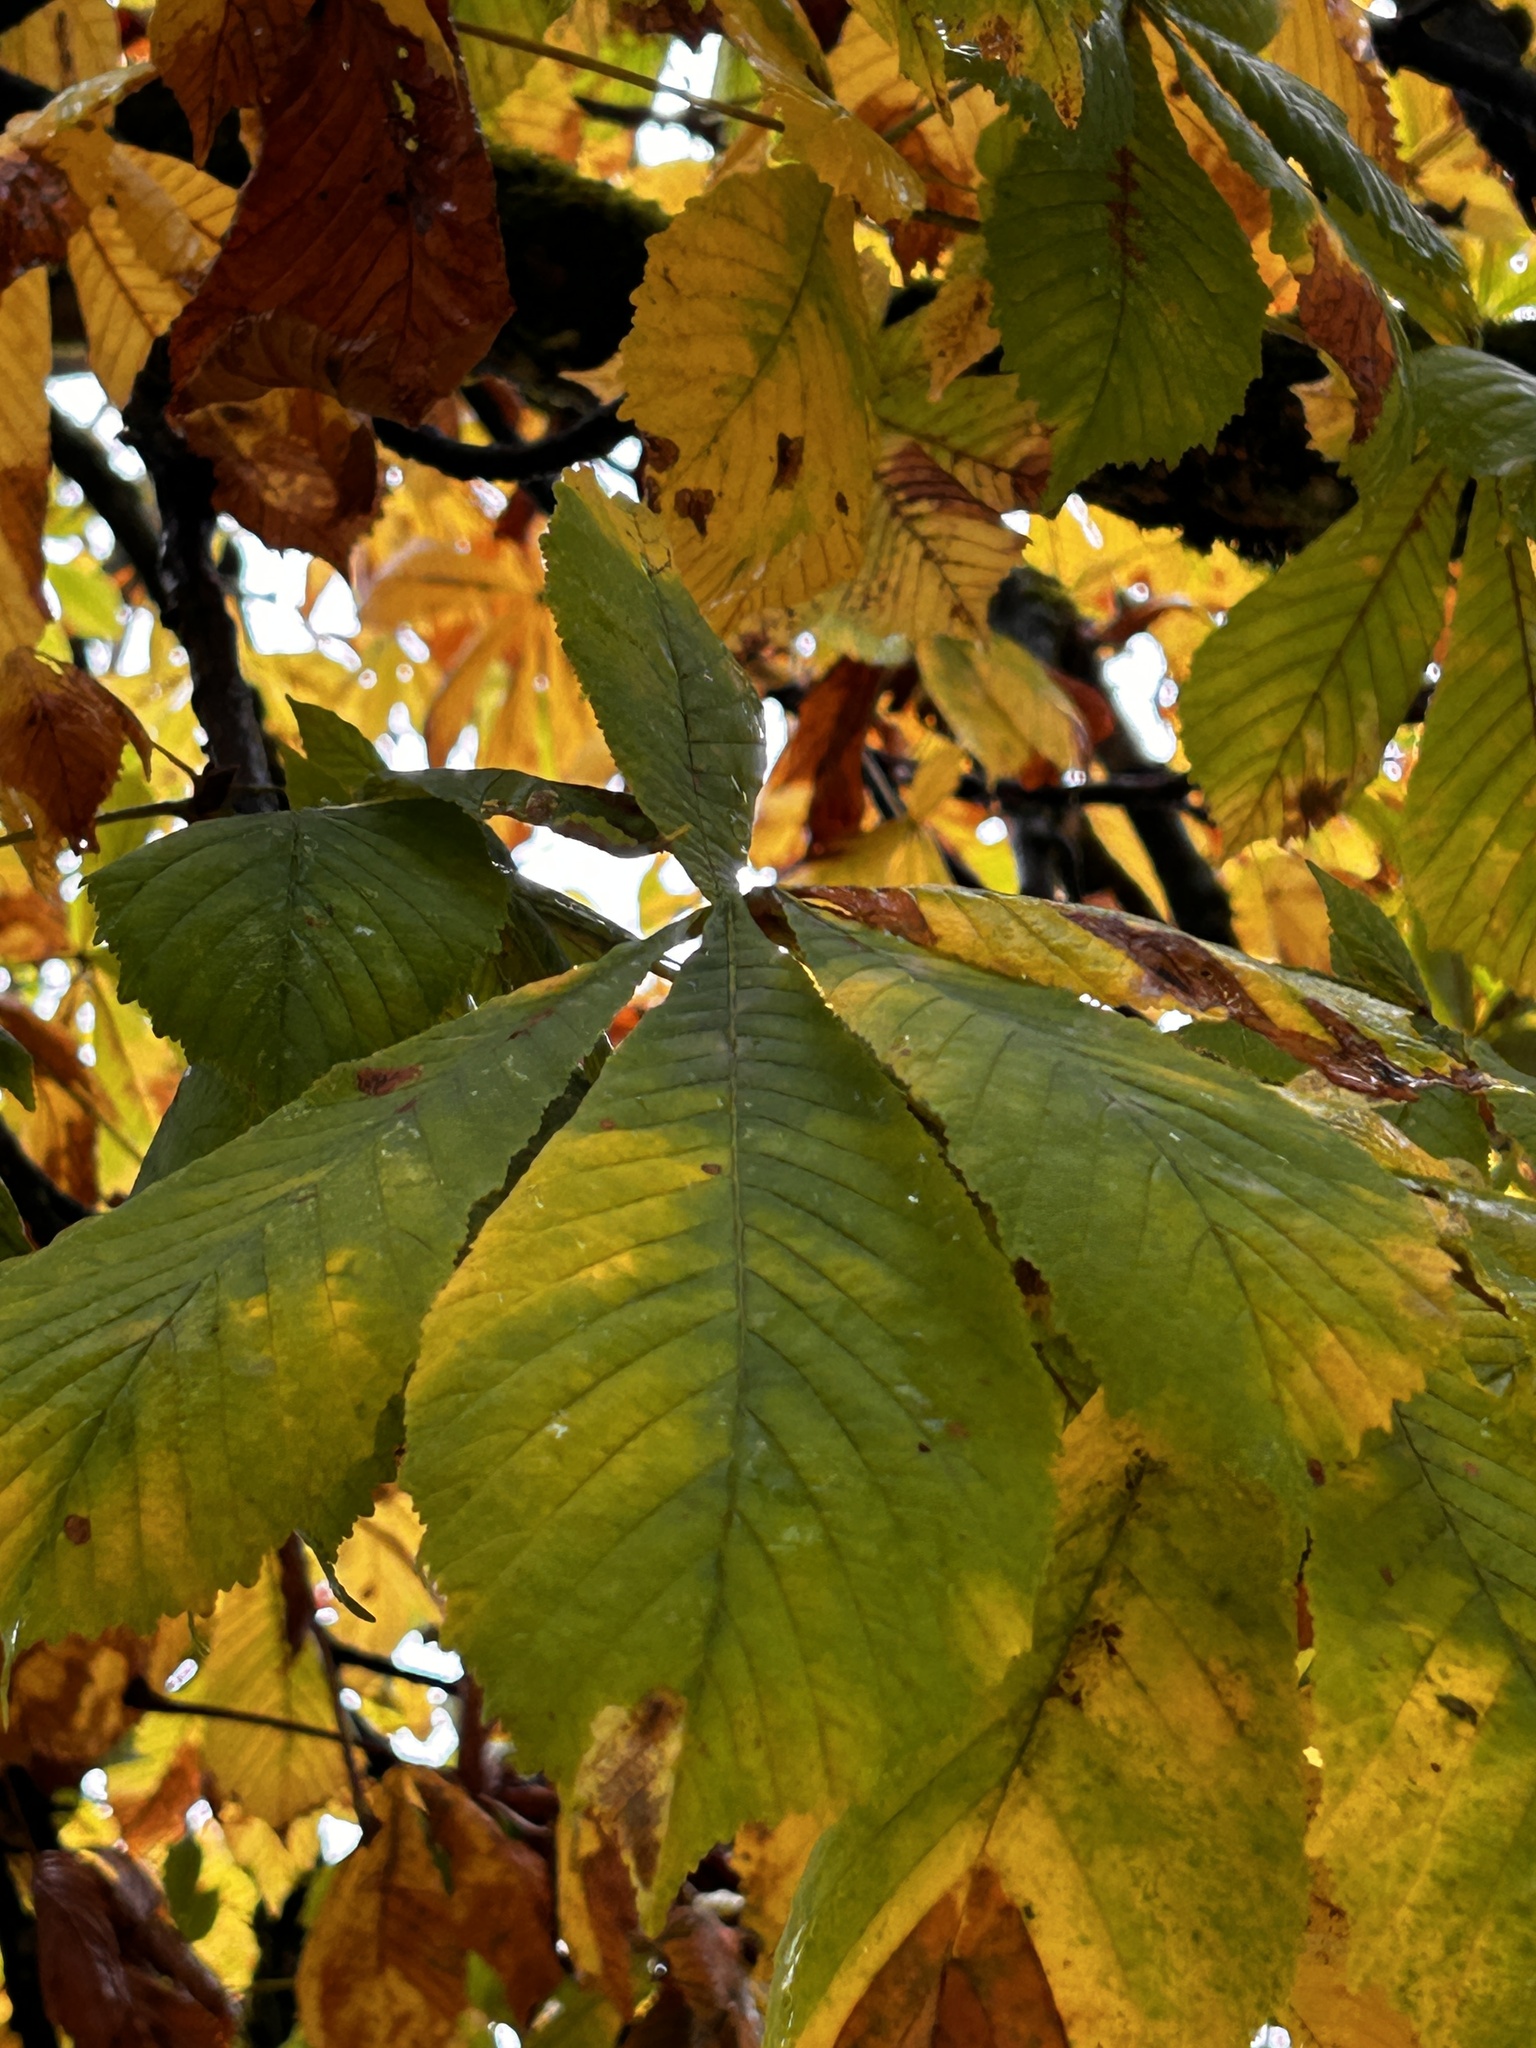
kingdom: Plantae
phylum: Tracheophyta
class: Magnoliopsida
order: Sapindales
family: Sapindaceae
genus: Aesculus
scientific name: Aesculus hippocastanum
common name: Horse-chestnut
